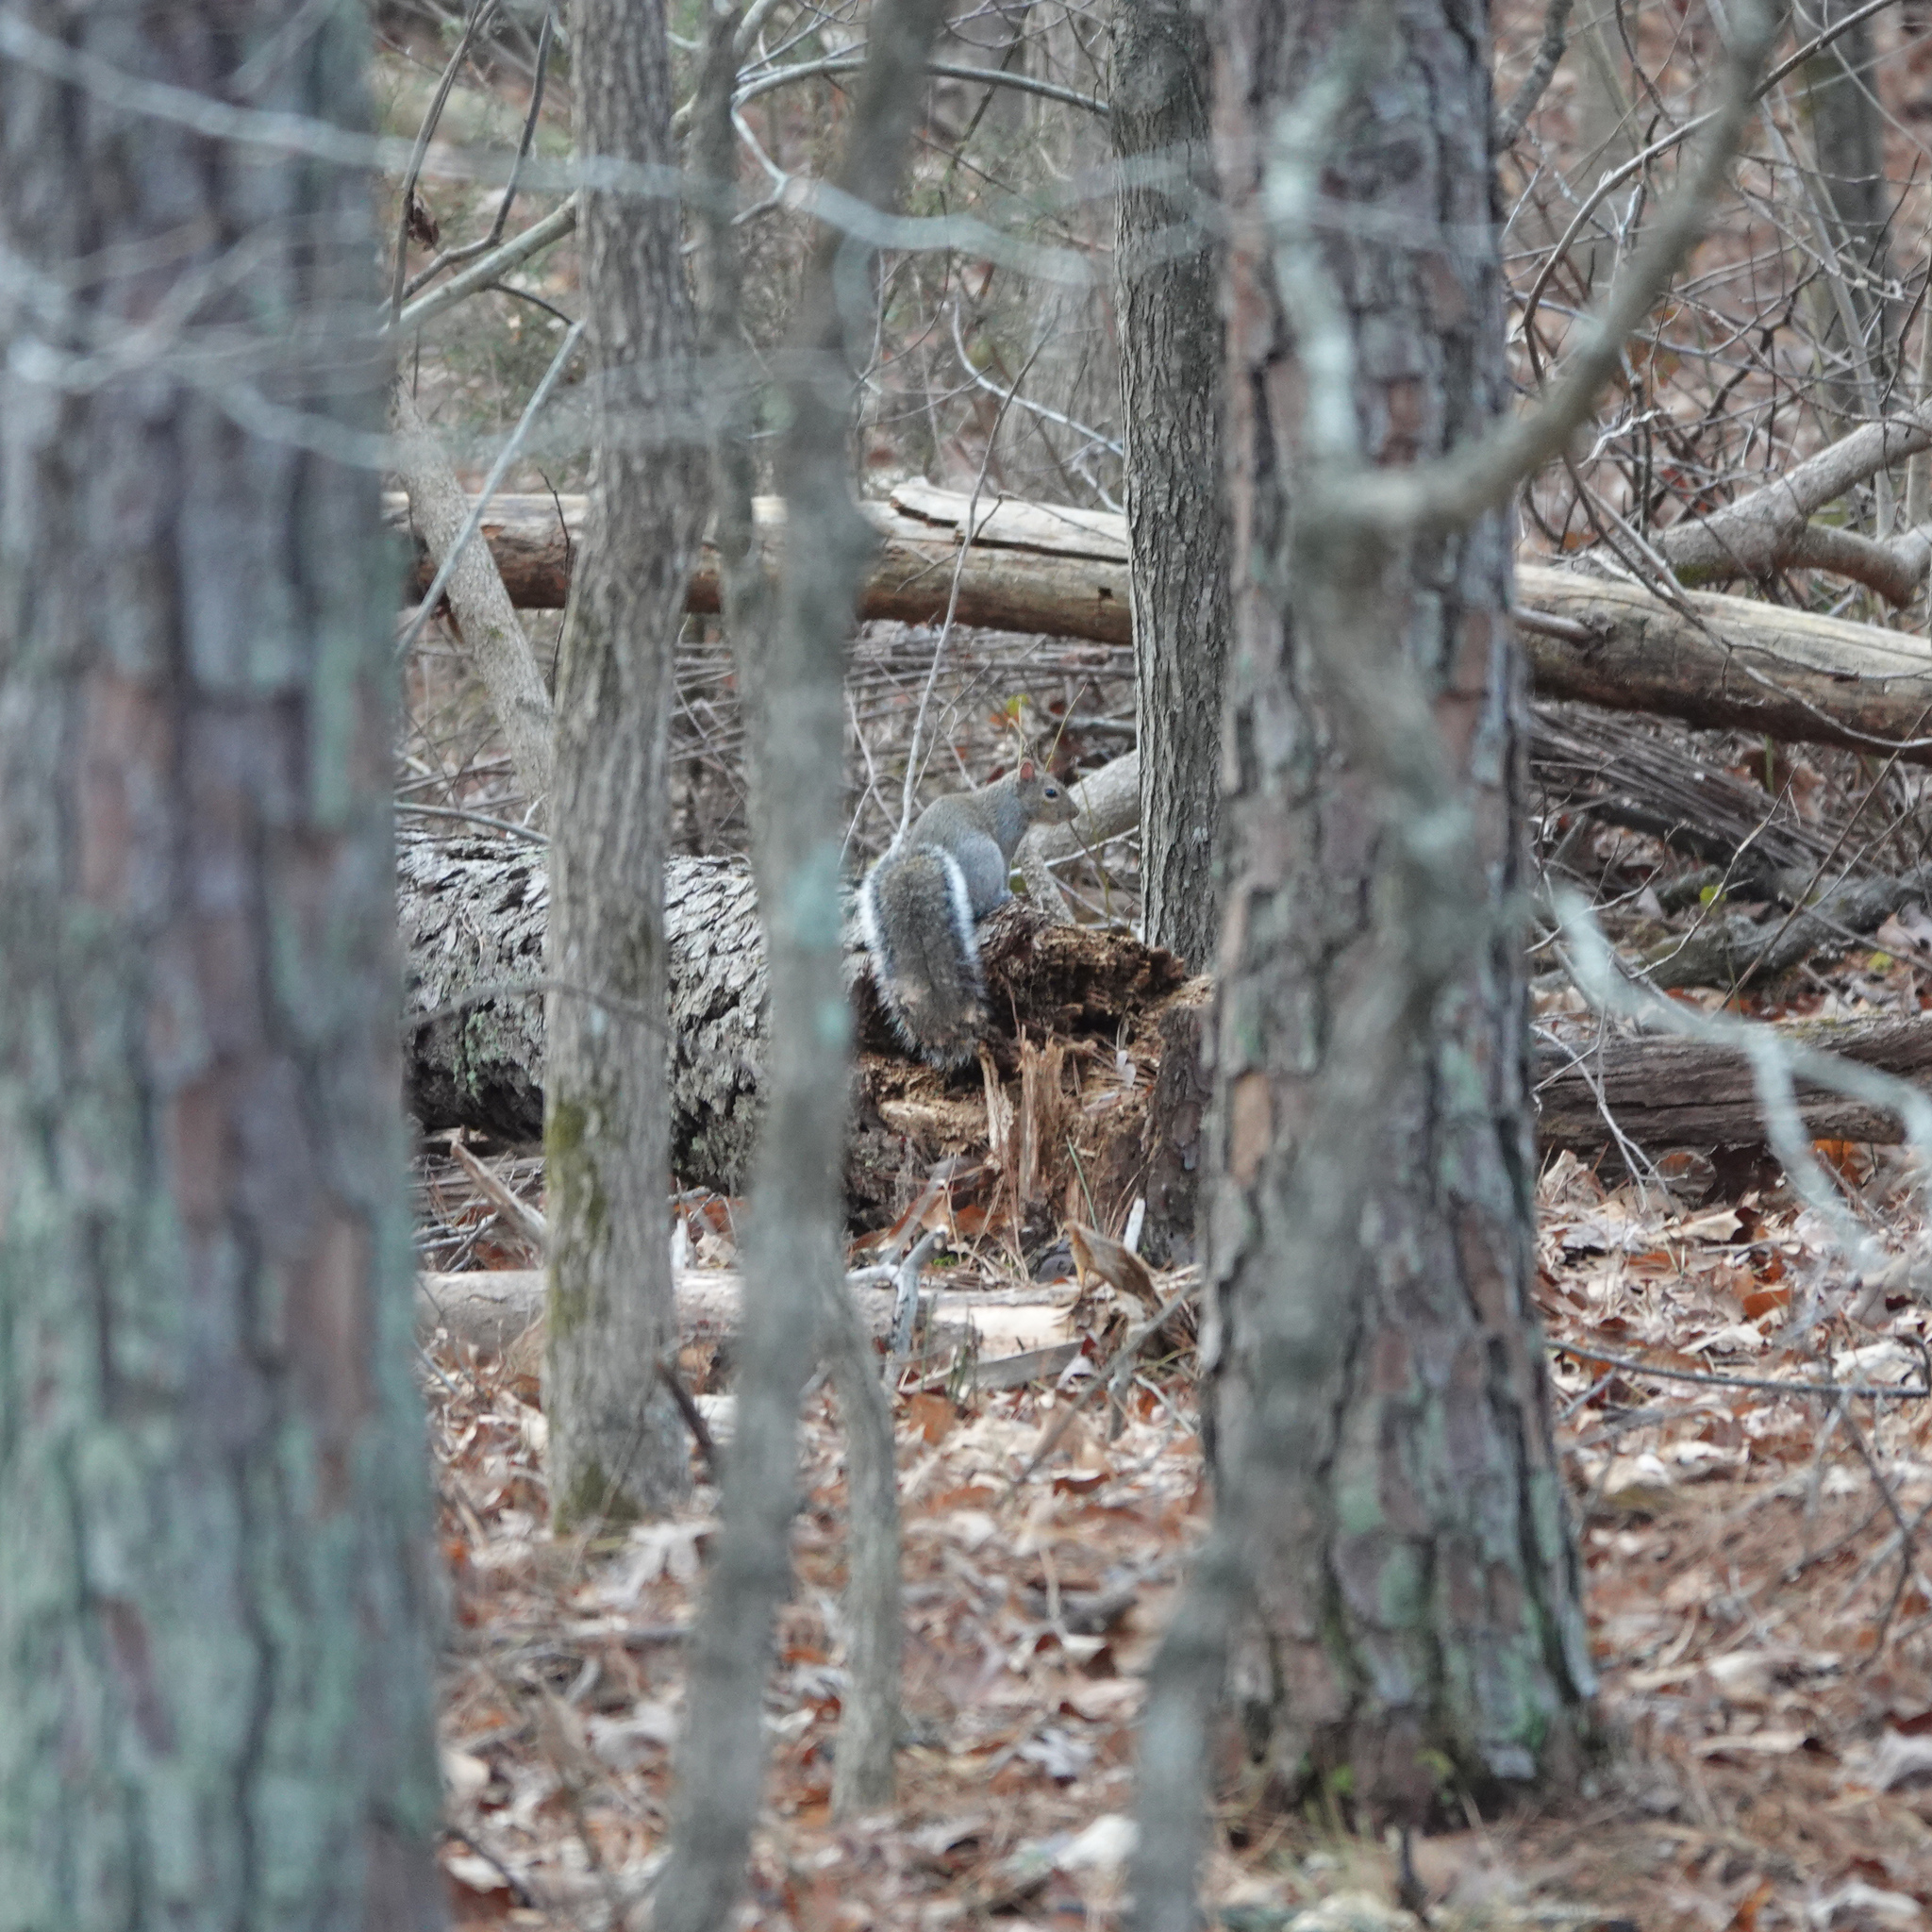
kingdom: Animalia
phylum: Chordata
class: Mammalia
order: Rodentia
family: Sciuridae
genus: Sciurus
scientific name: Sciurus carolinensis
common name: Eastern gray squirrel
